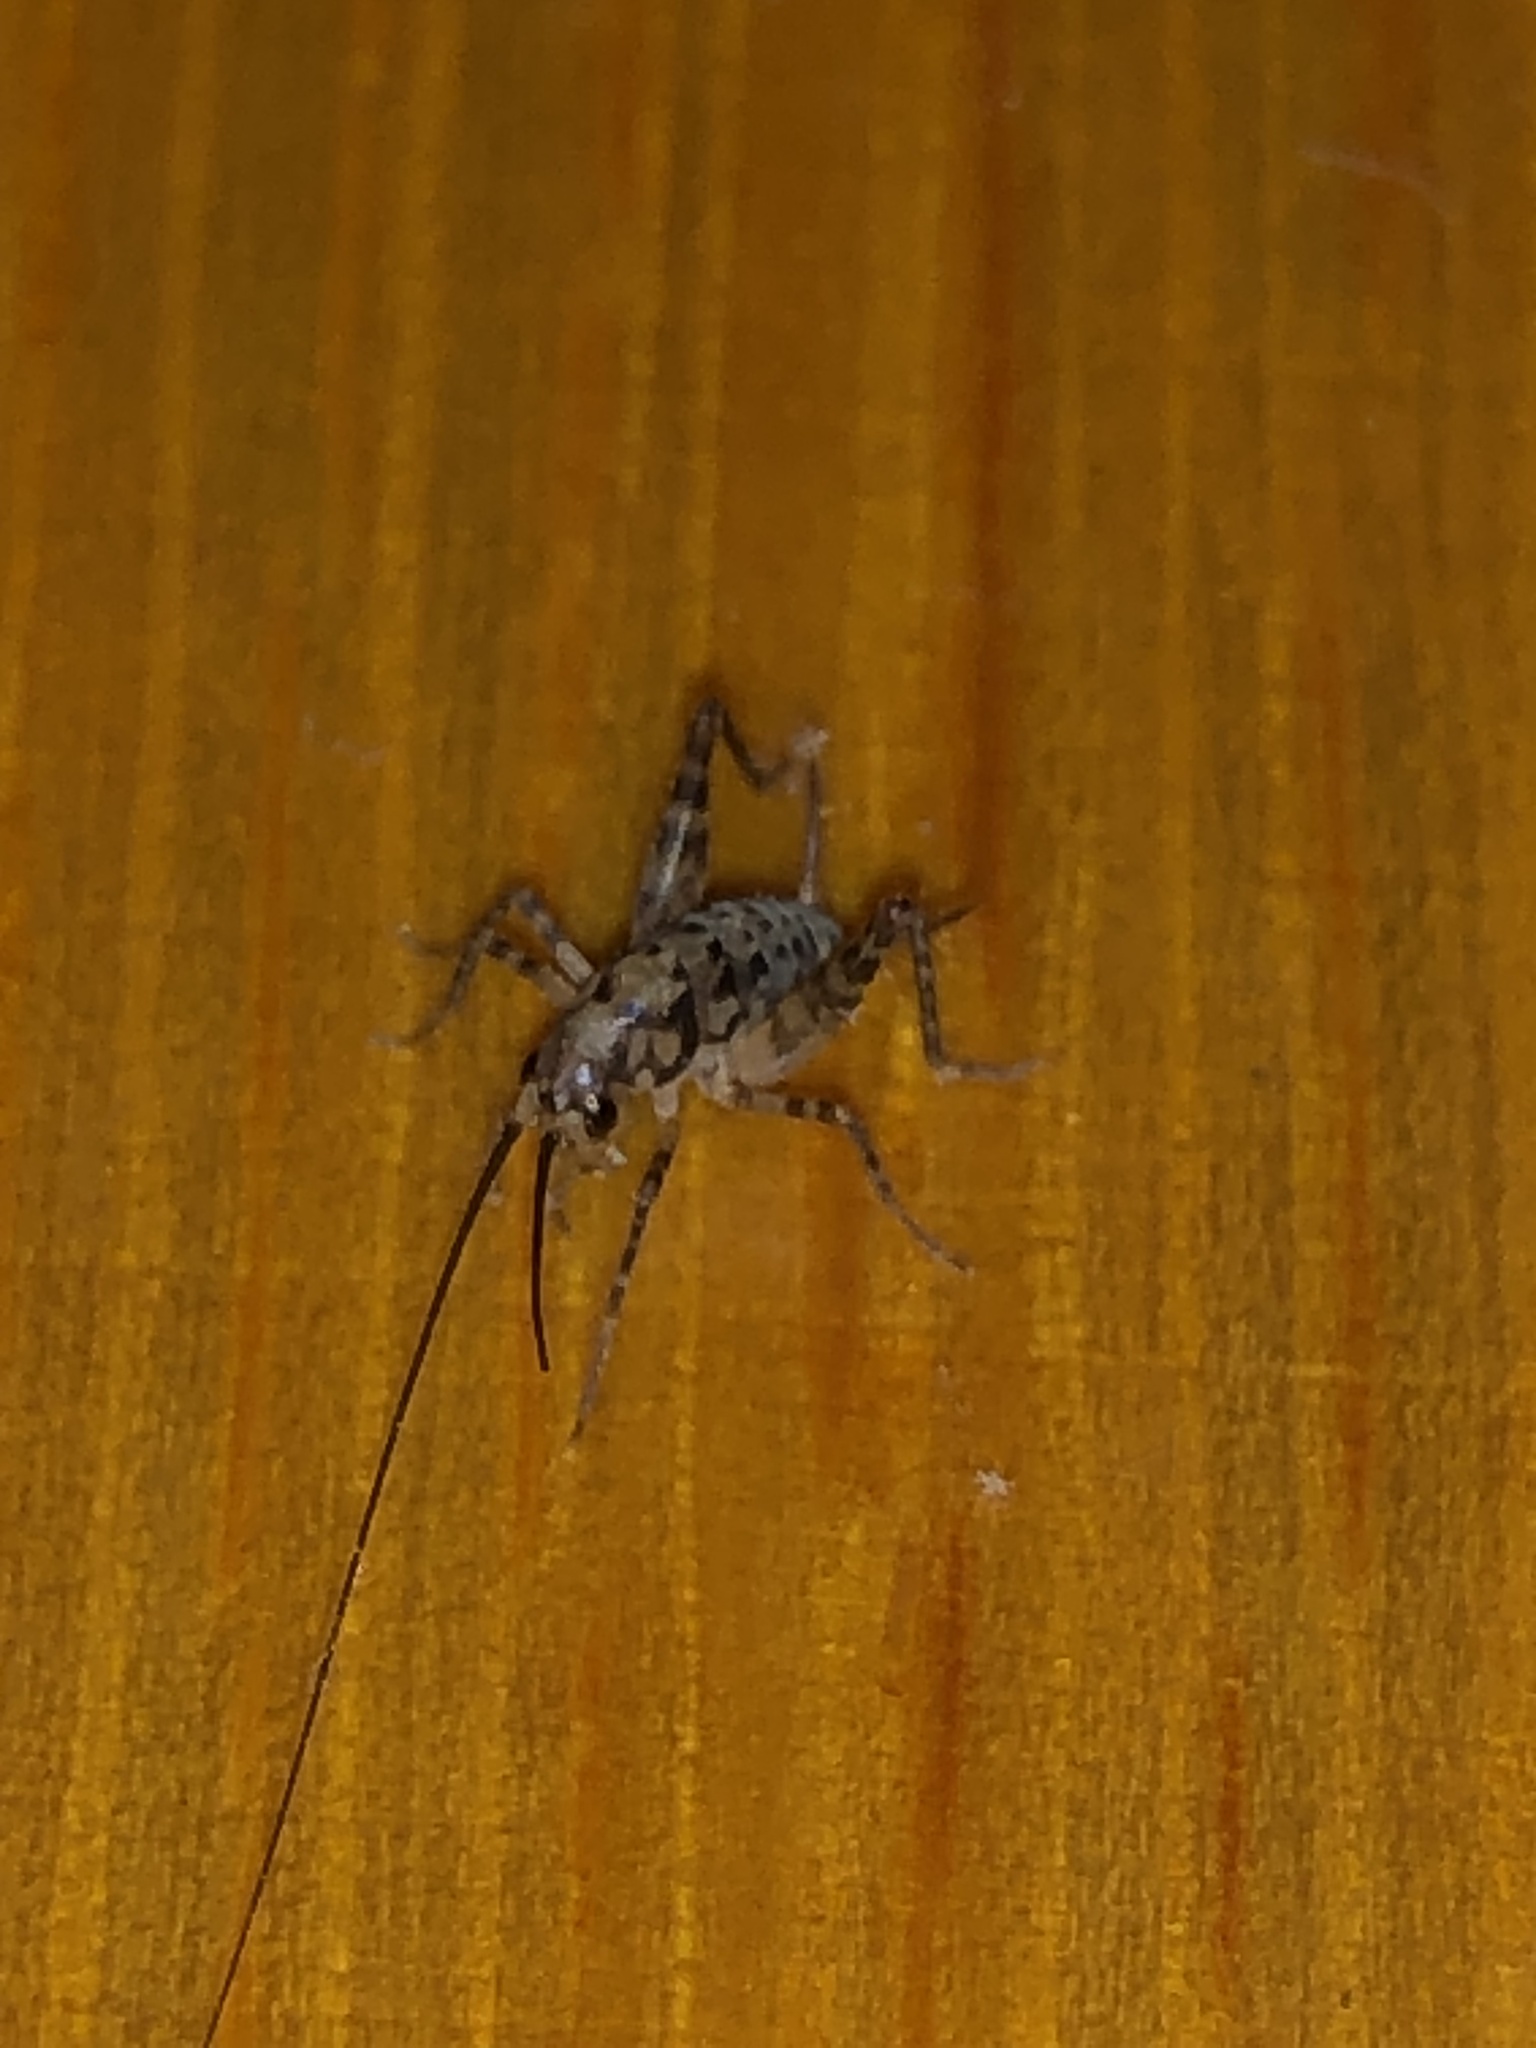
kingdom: Animalia
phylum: Arthropoda
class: Insecta
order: Orthoptera
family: Rhaphidophoridae
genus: Tachycines
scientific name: Tachycines asynamorus
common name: Greenhouse camel cricket
